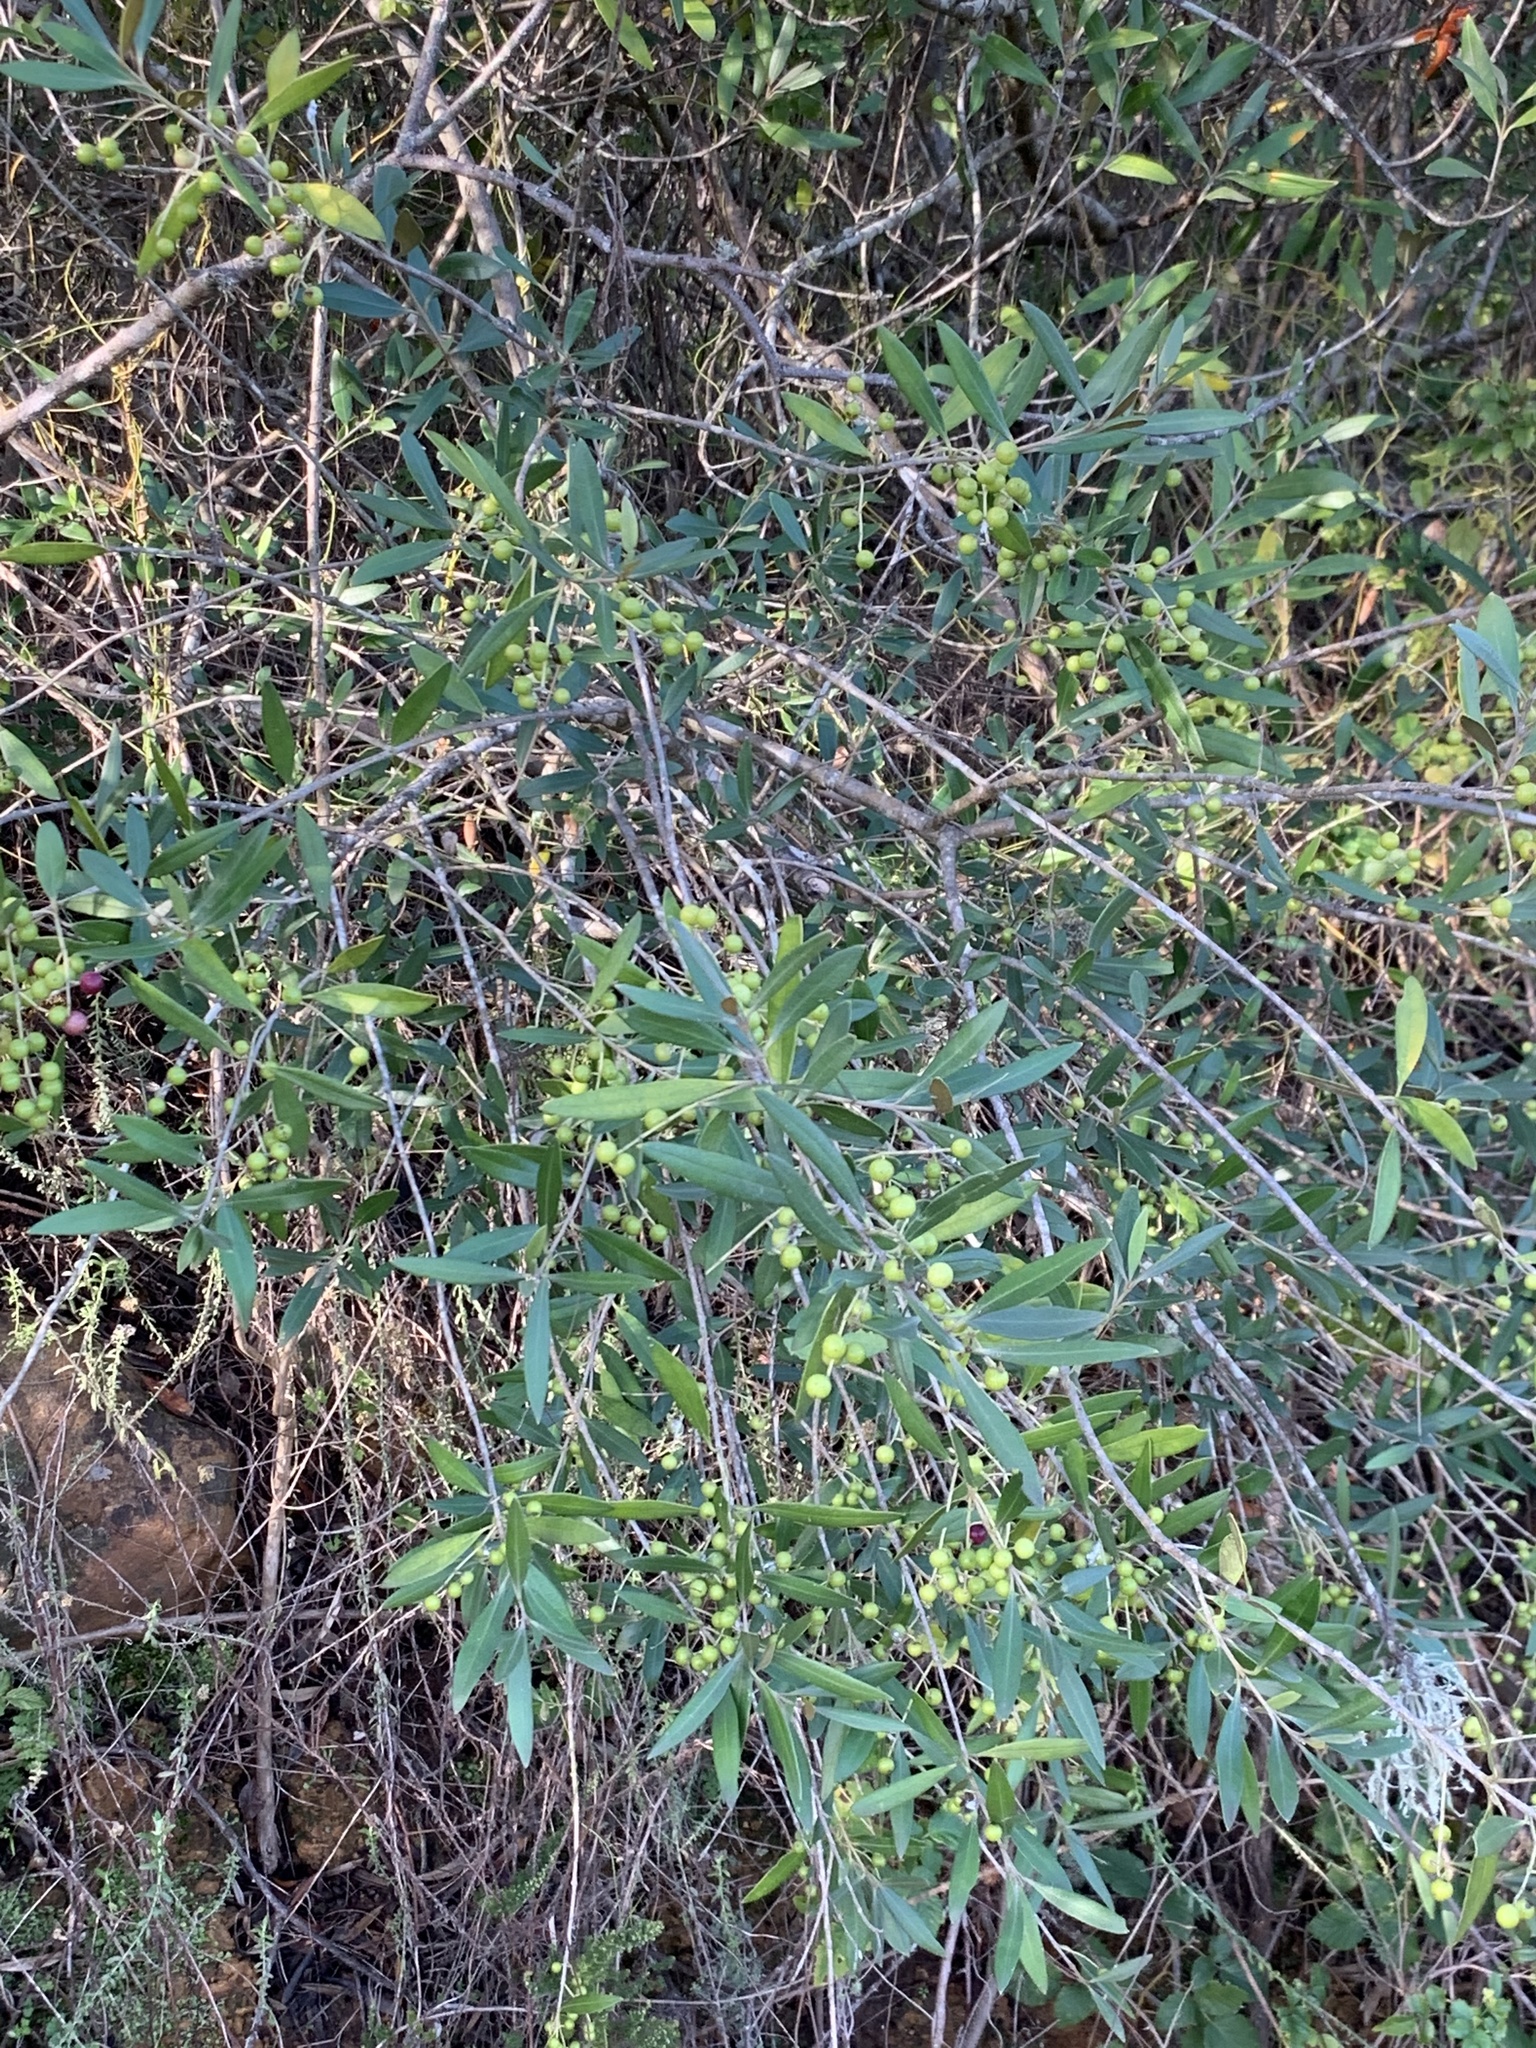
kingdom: Plantae
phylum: Tracheophyta
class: Magnoliopsida
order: Lamiales
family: Oleaceae
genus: Olea
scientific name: Olea europaea
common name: Olive
